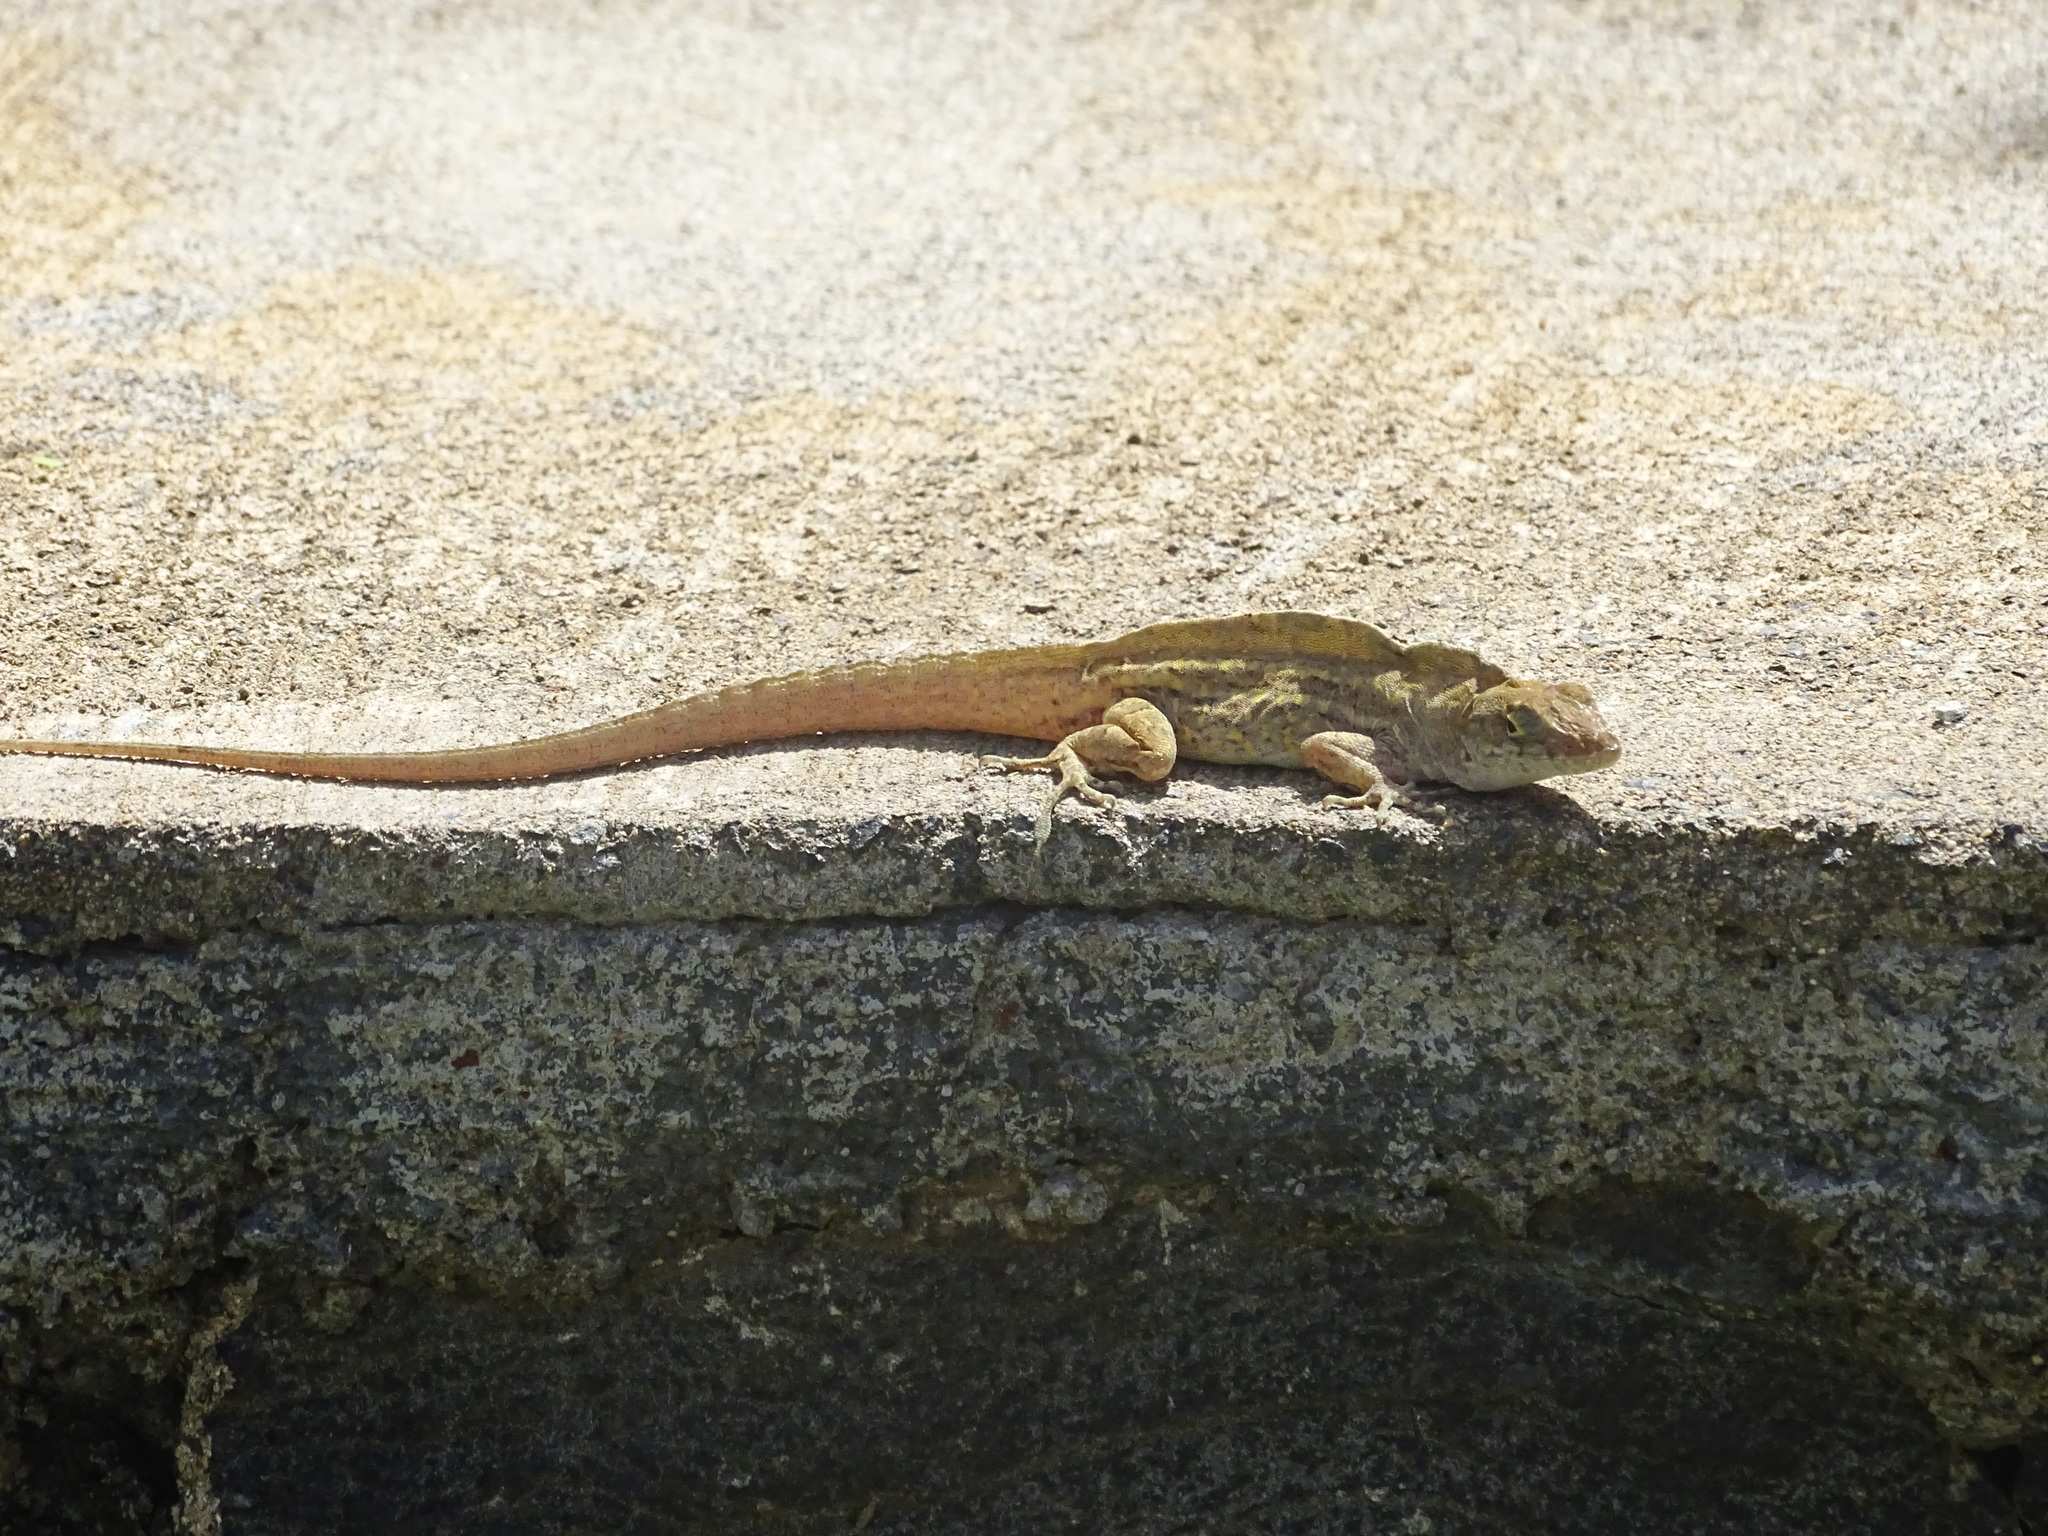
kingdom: Animalia
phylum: Chordata
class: Squamata
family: Dactyloidae
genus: Anolis
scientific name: Anolis sagrei
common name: Brown anole
